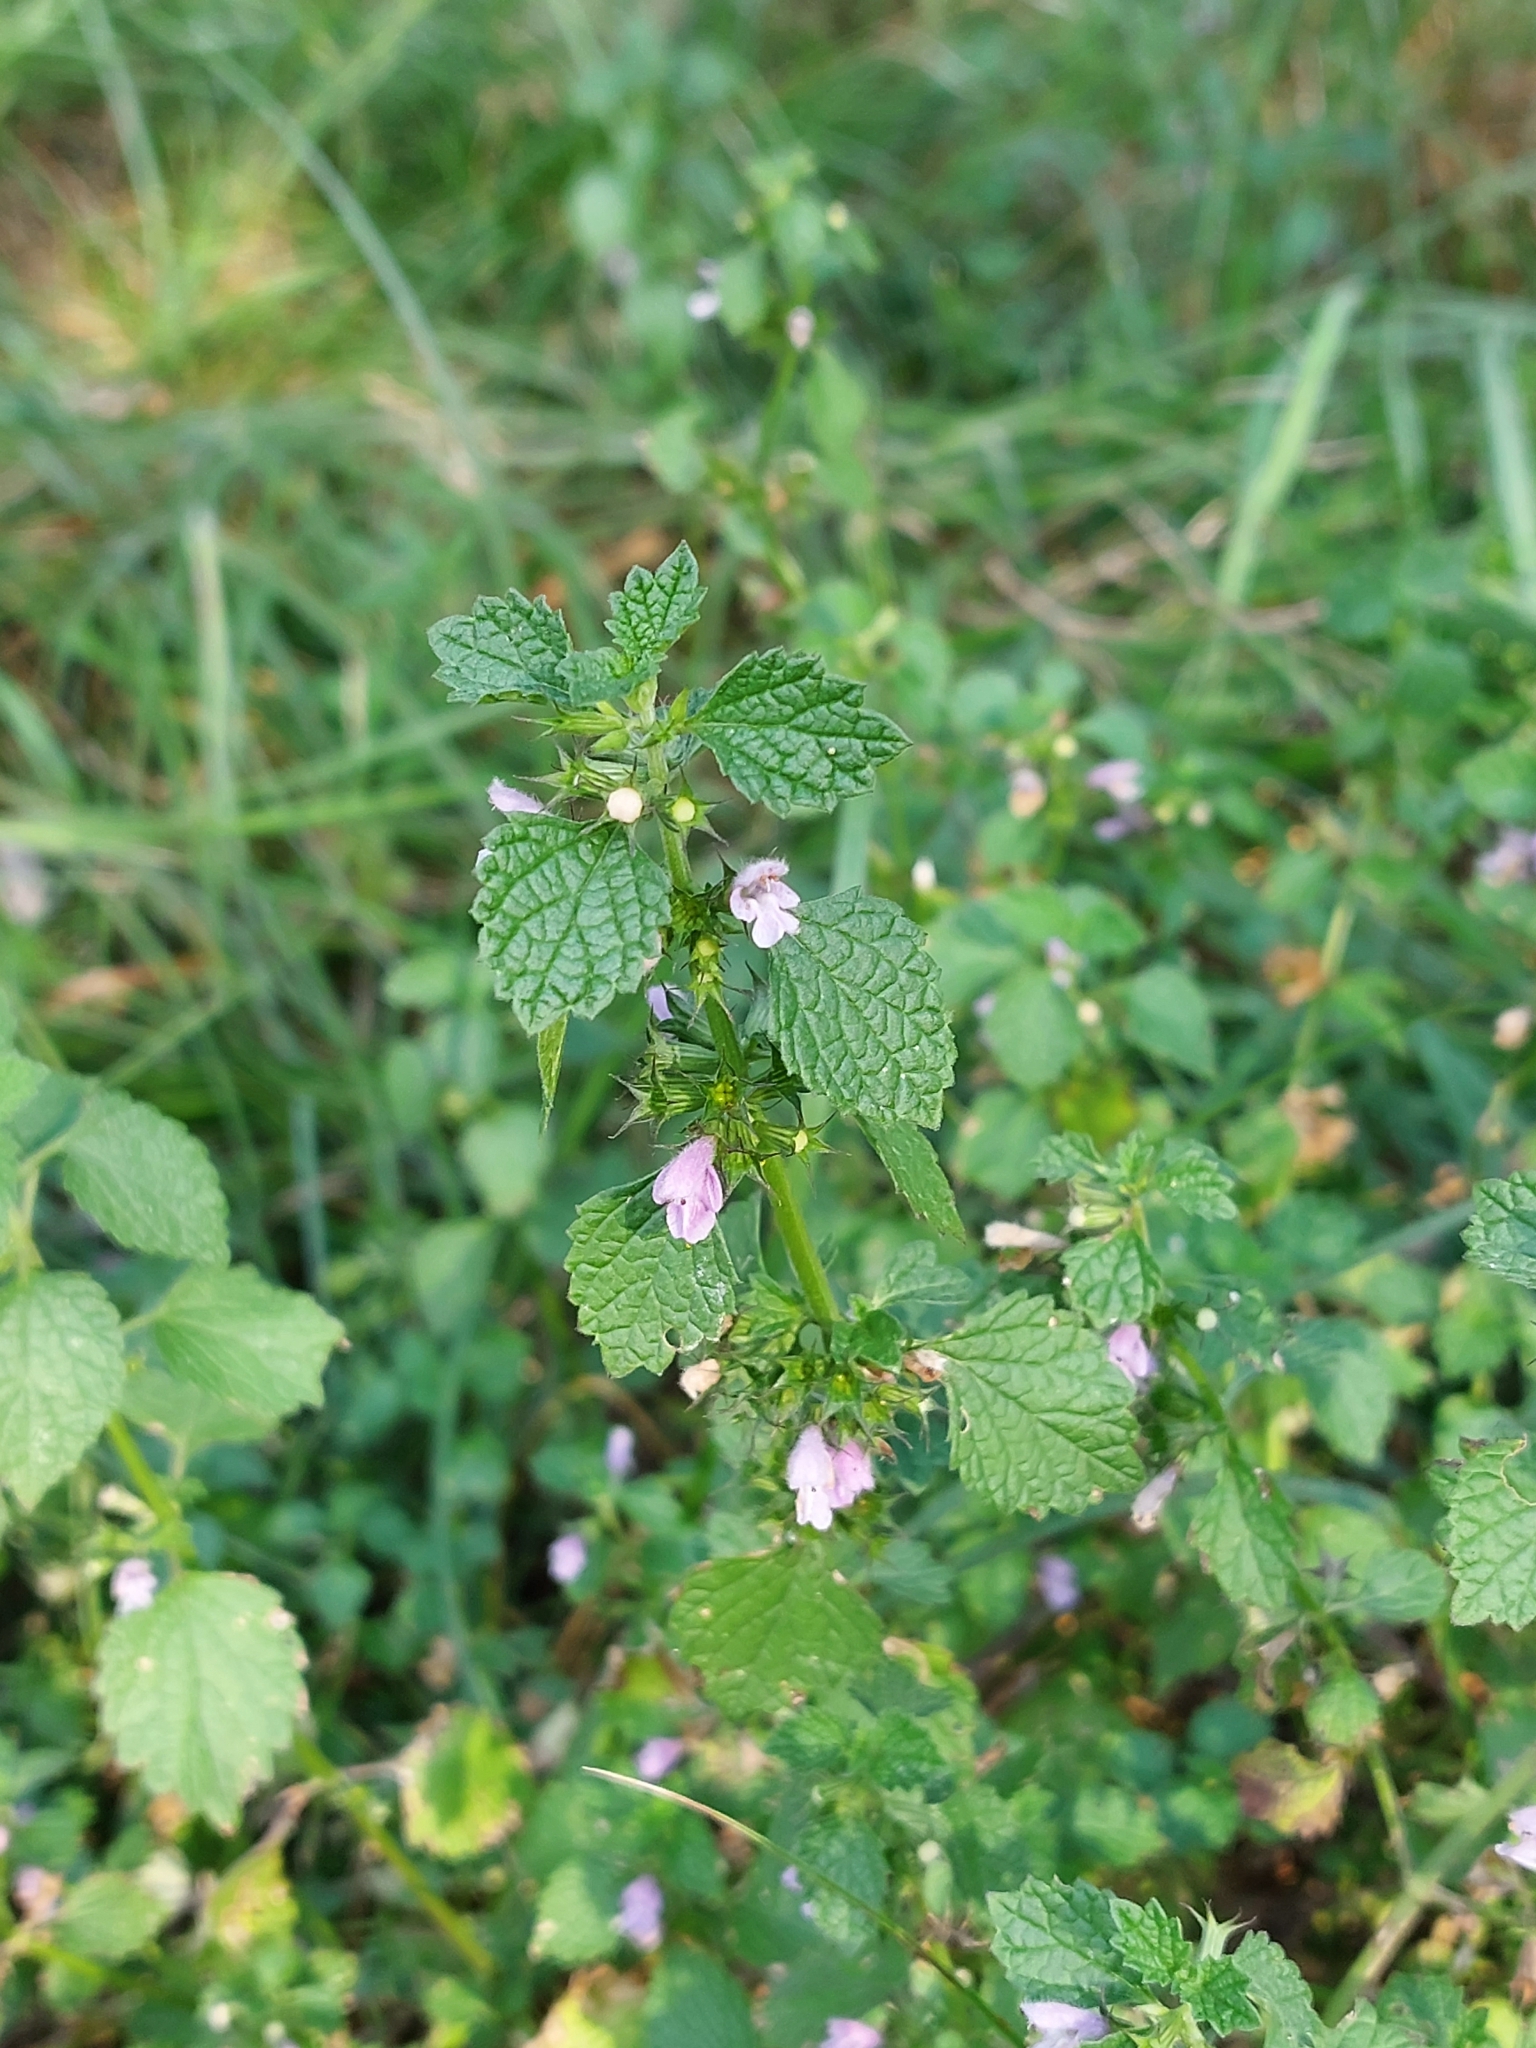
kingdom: Plantae
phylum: Tracheophyta
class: Magnoliopsida
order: Lamiales
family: Lamiaceae
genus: Ballota
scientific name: Ballota nigra
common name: Black horehound
